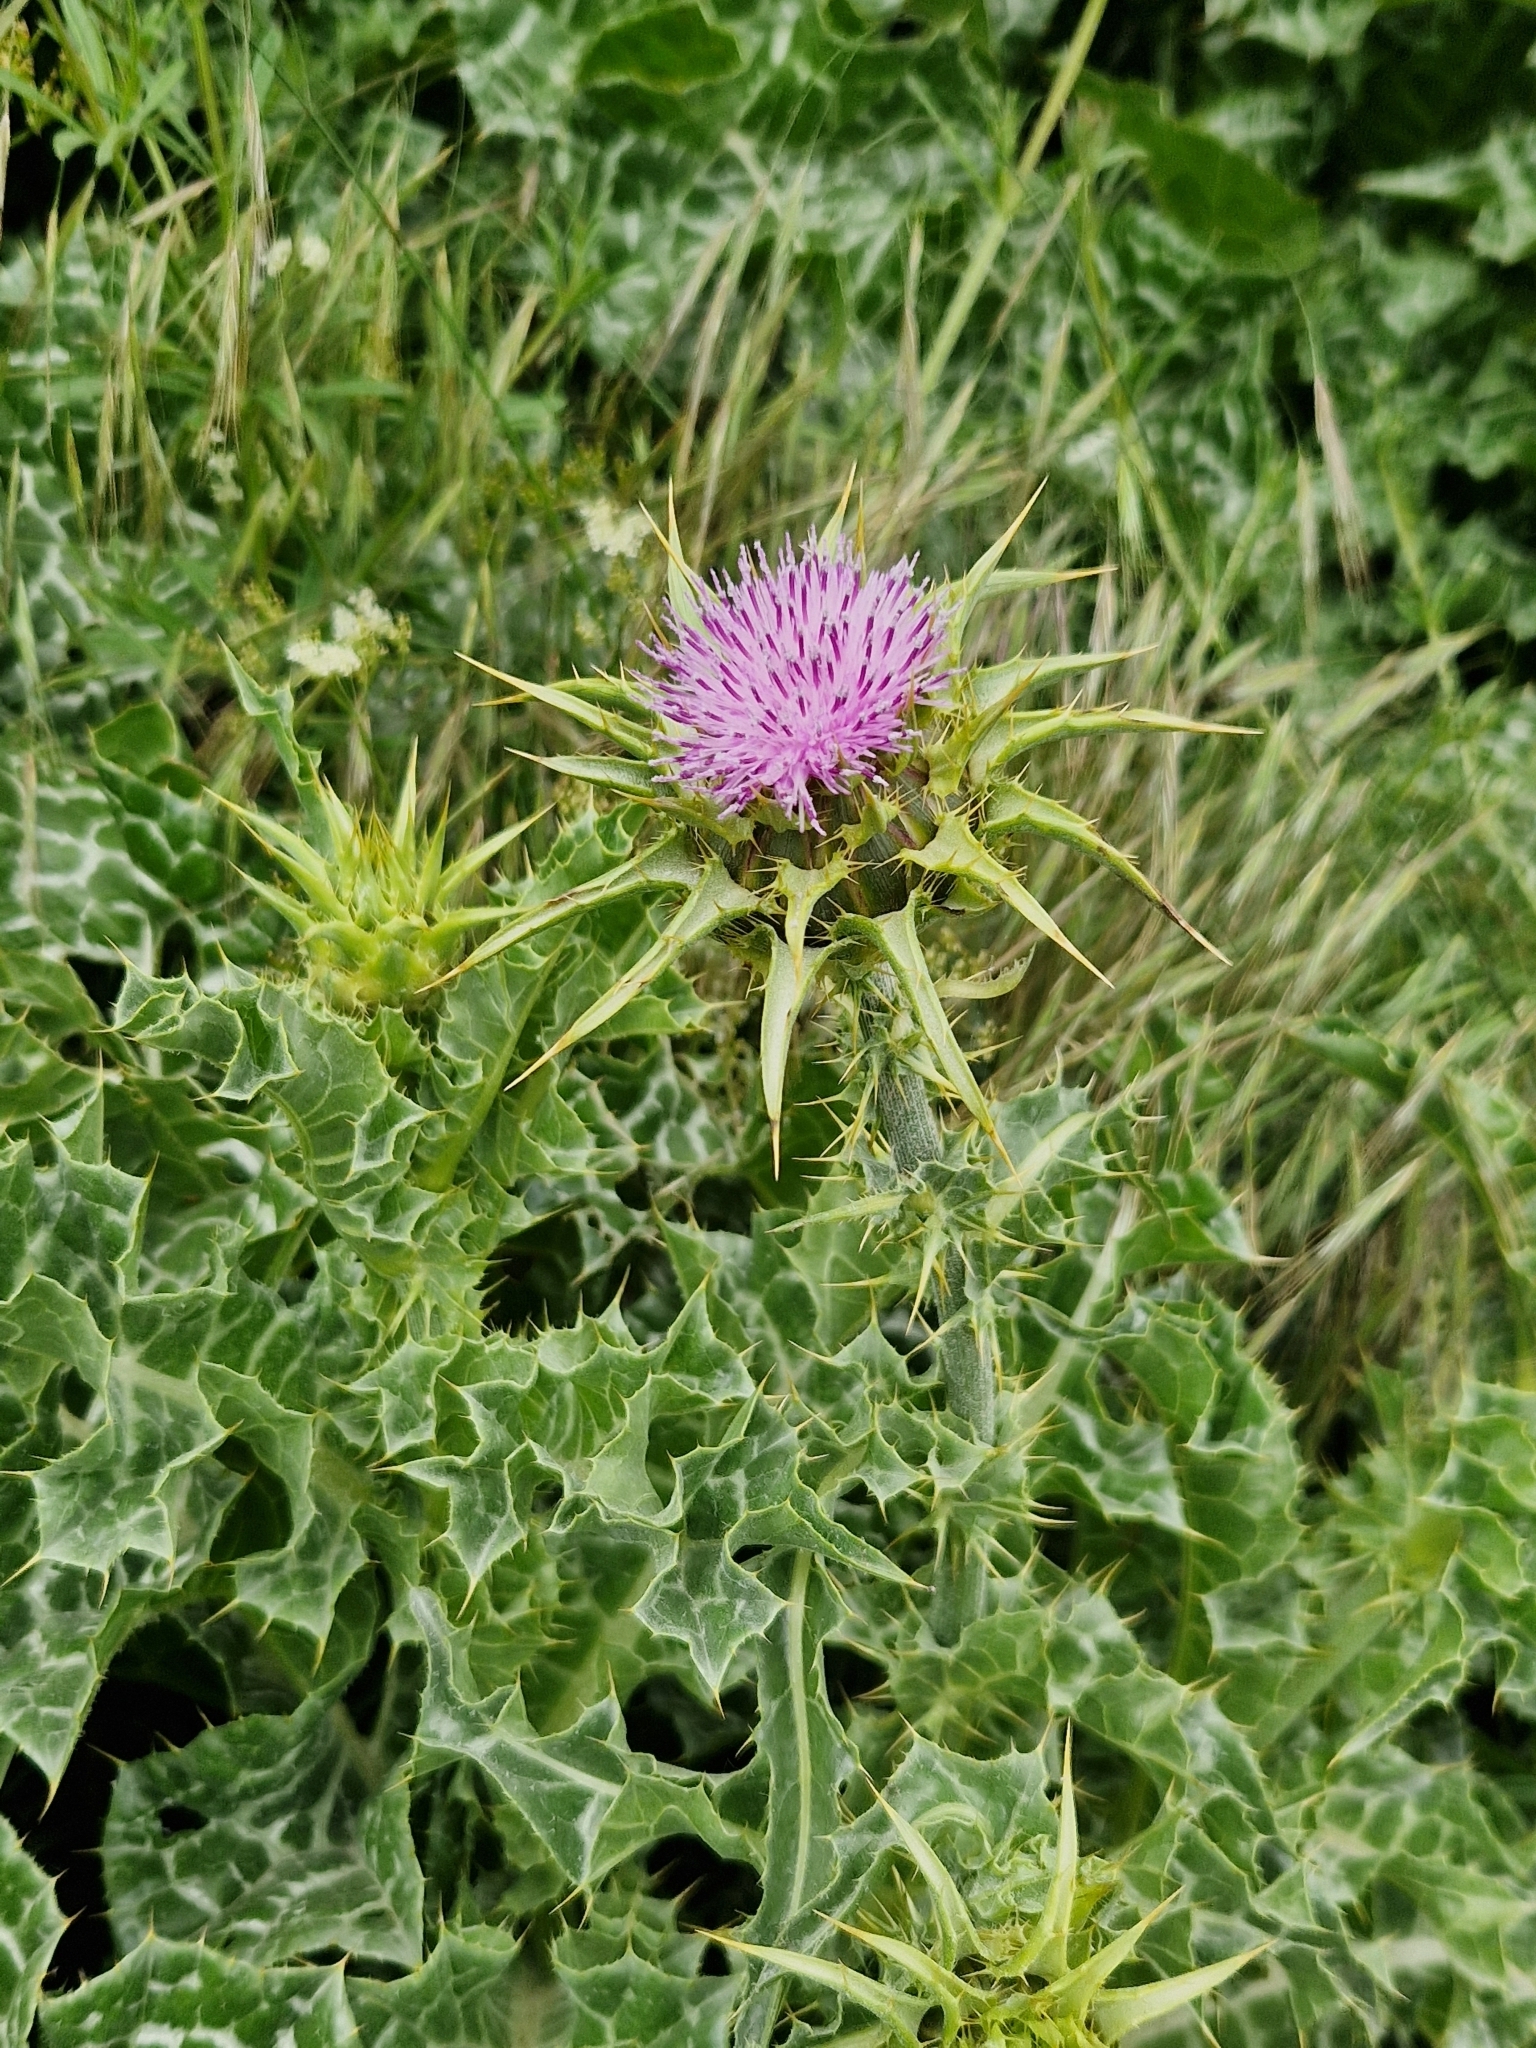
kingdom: Plantae
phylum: Tracheophyta
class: Magnoliopsida
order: Asterales
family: Asteraceae
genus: Silybum
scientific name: Silybum marianum
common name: Milk thistle
